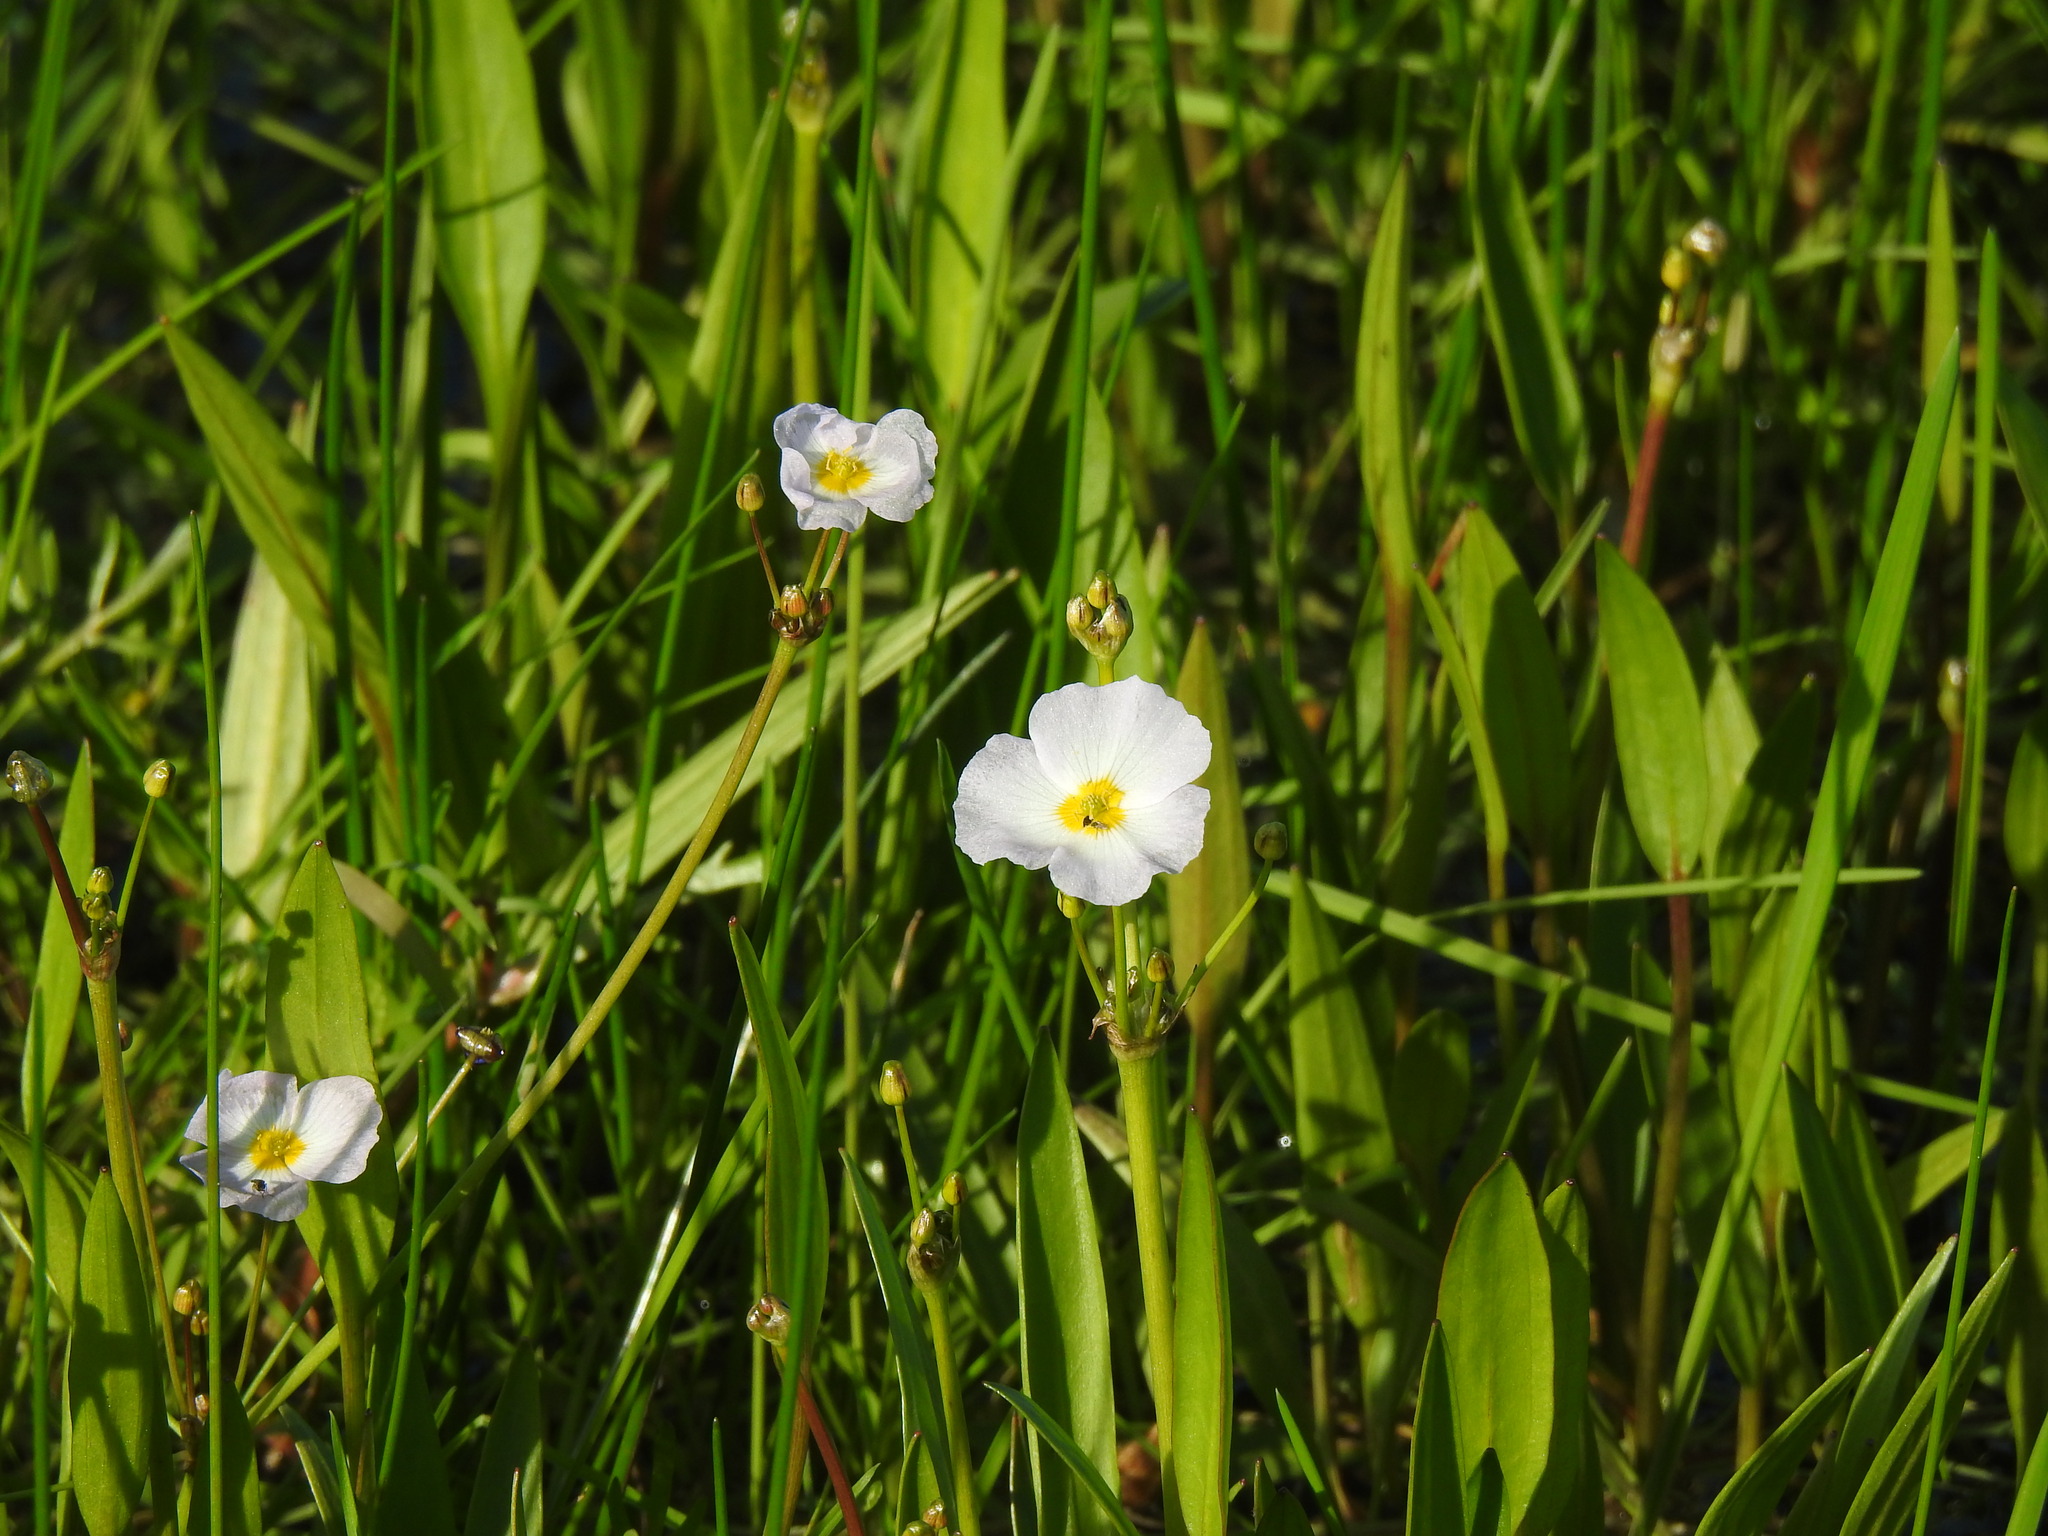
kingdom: Plantae
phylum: Tracheophyta
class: Liliopsida
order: Alismatales
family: Alismataceae
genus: Baldellia
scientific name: Baldellia repens
